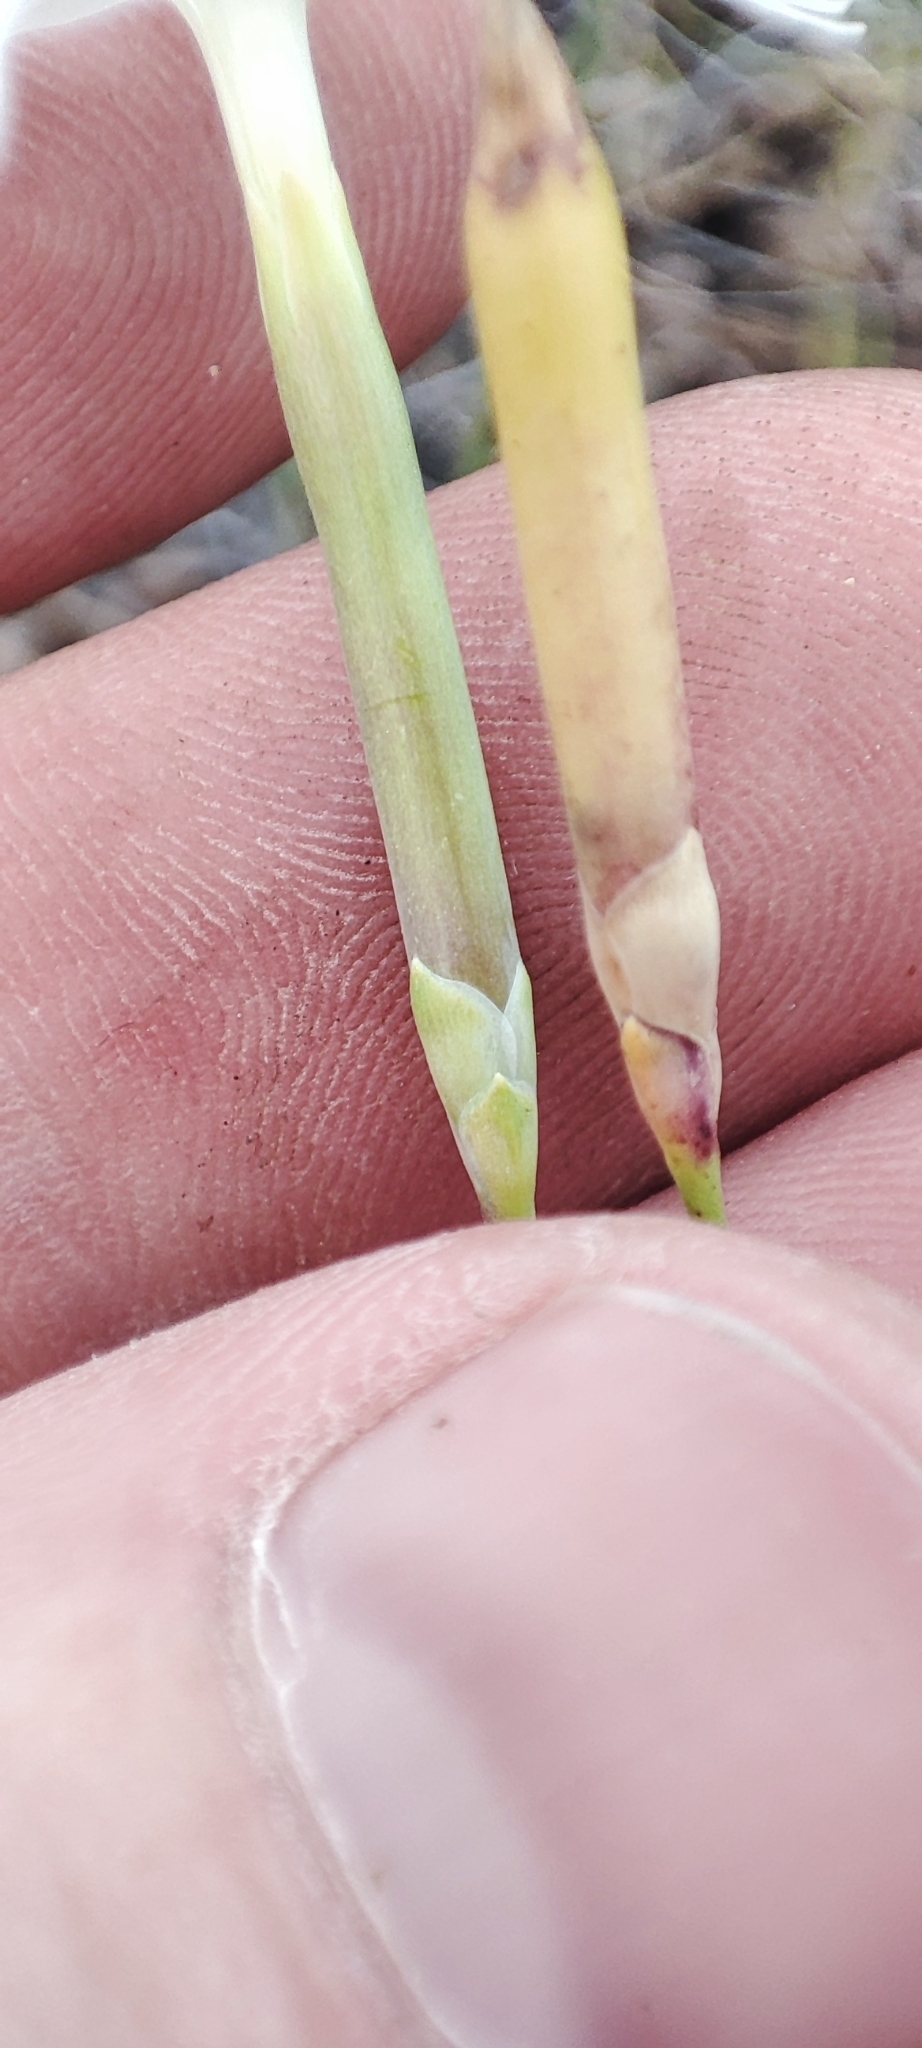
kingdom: Plantae
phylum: Tracheophyta
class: Magnoliopsida
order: Caryophyllales
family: Caryophyllaceae
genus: Dianthus
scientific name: Dianthus arenarius
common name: Stone pink
